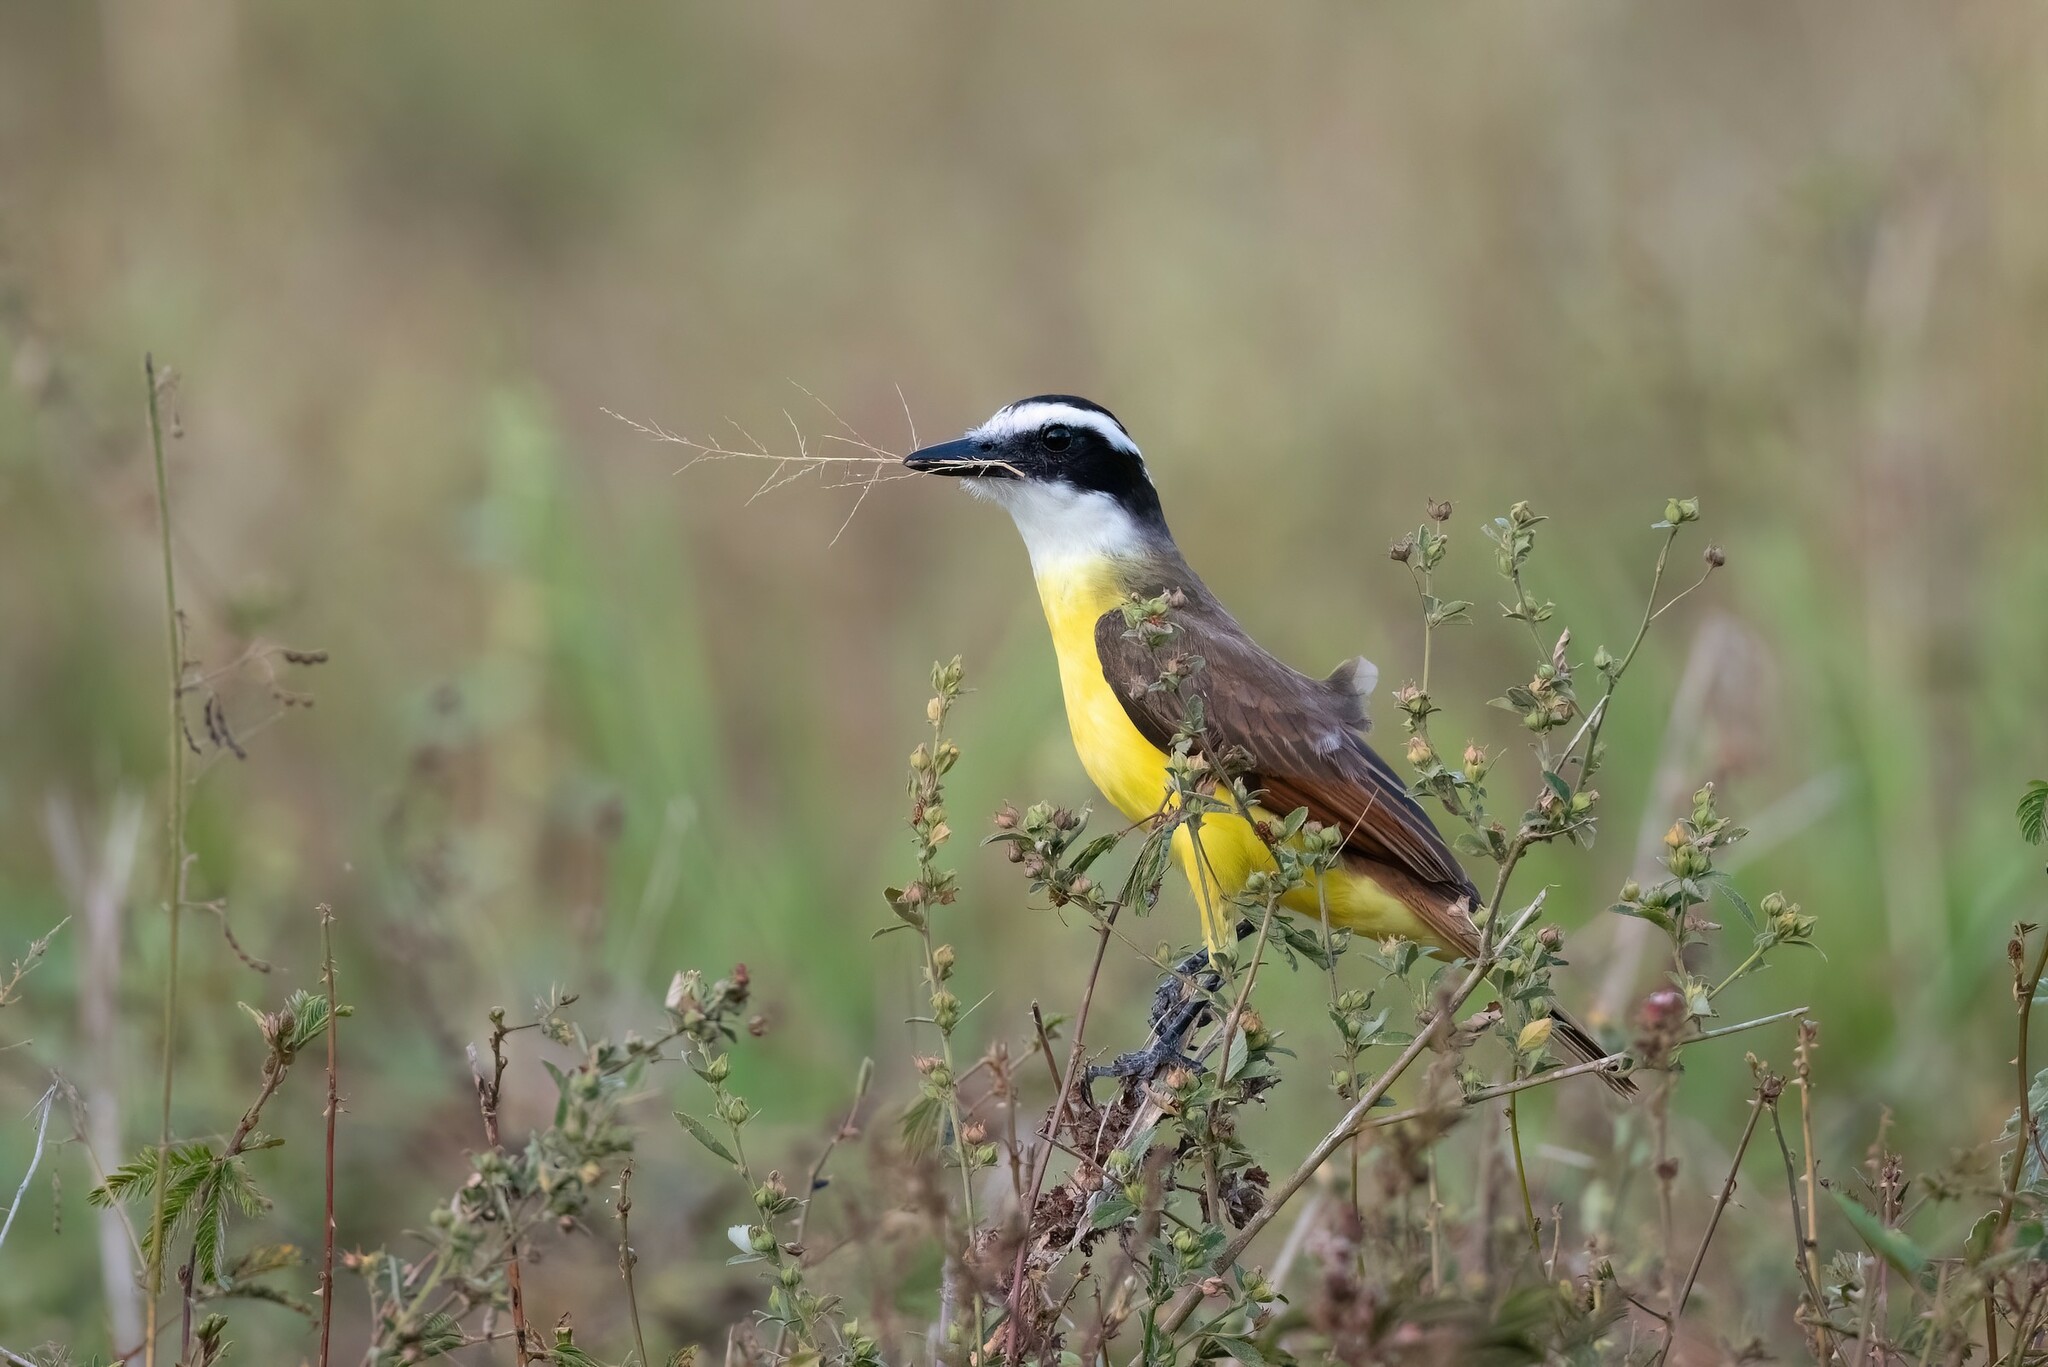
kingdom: Animalia
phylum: Chordata
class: Aves
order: Passeriformes
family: Tyrannidae
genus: Pitangus
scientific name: Pitangus sulphuratus
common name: Great kiskadee
